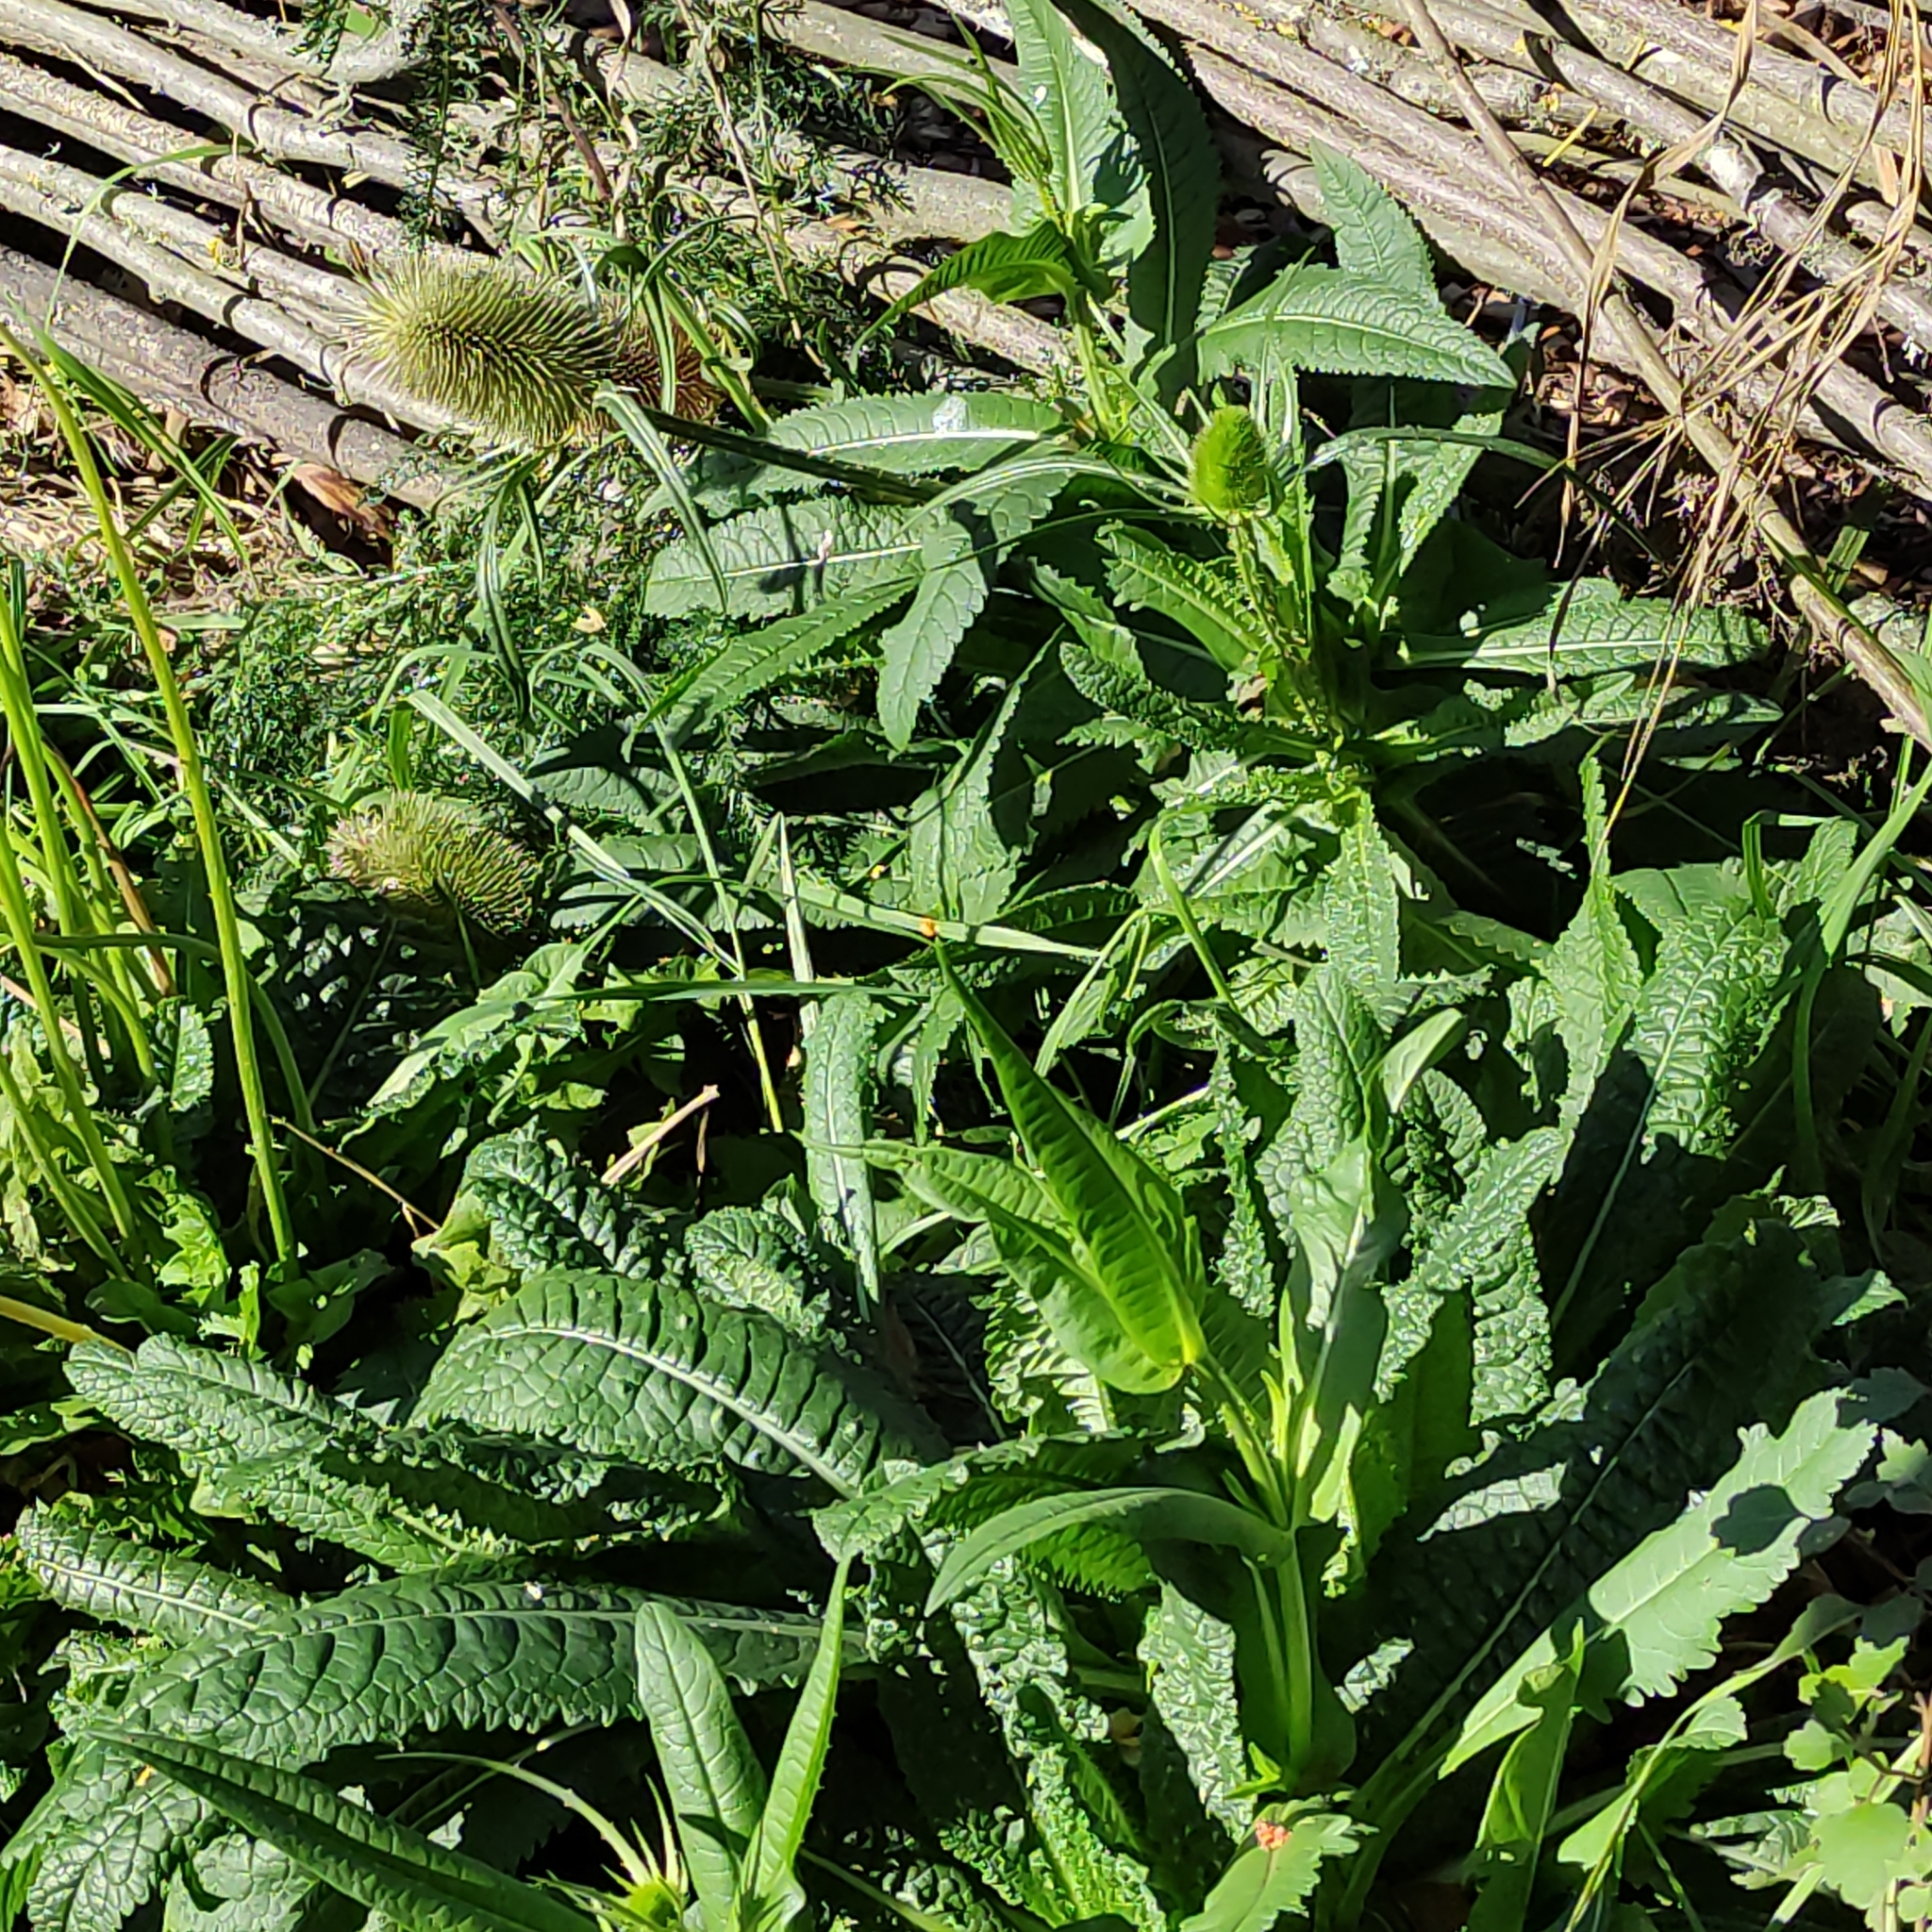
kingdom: Plantae
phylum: Tracheophyta
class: Magnoliopsida
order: Dipsacales
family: Caprifoliaceae
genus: Dipsacus
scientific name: Dipsacus fullonum
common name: Teasel
